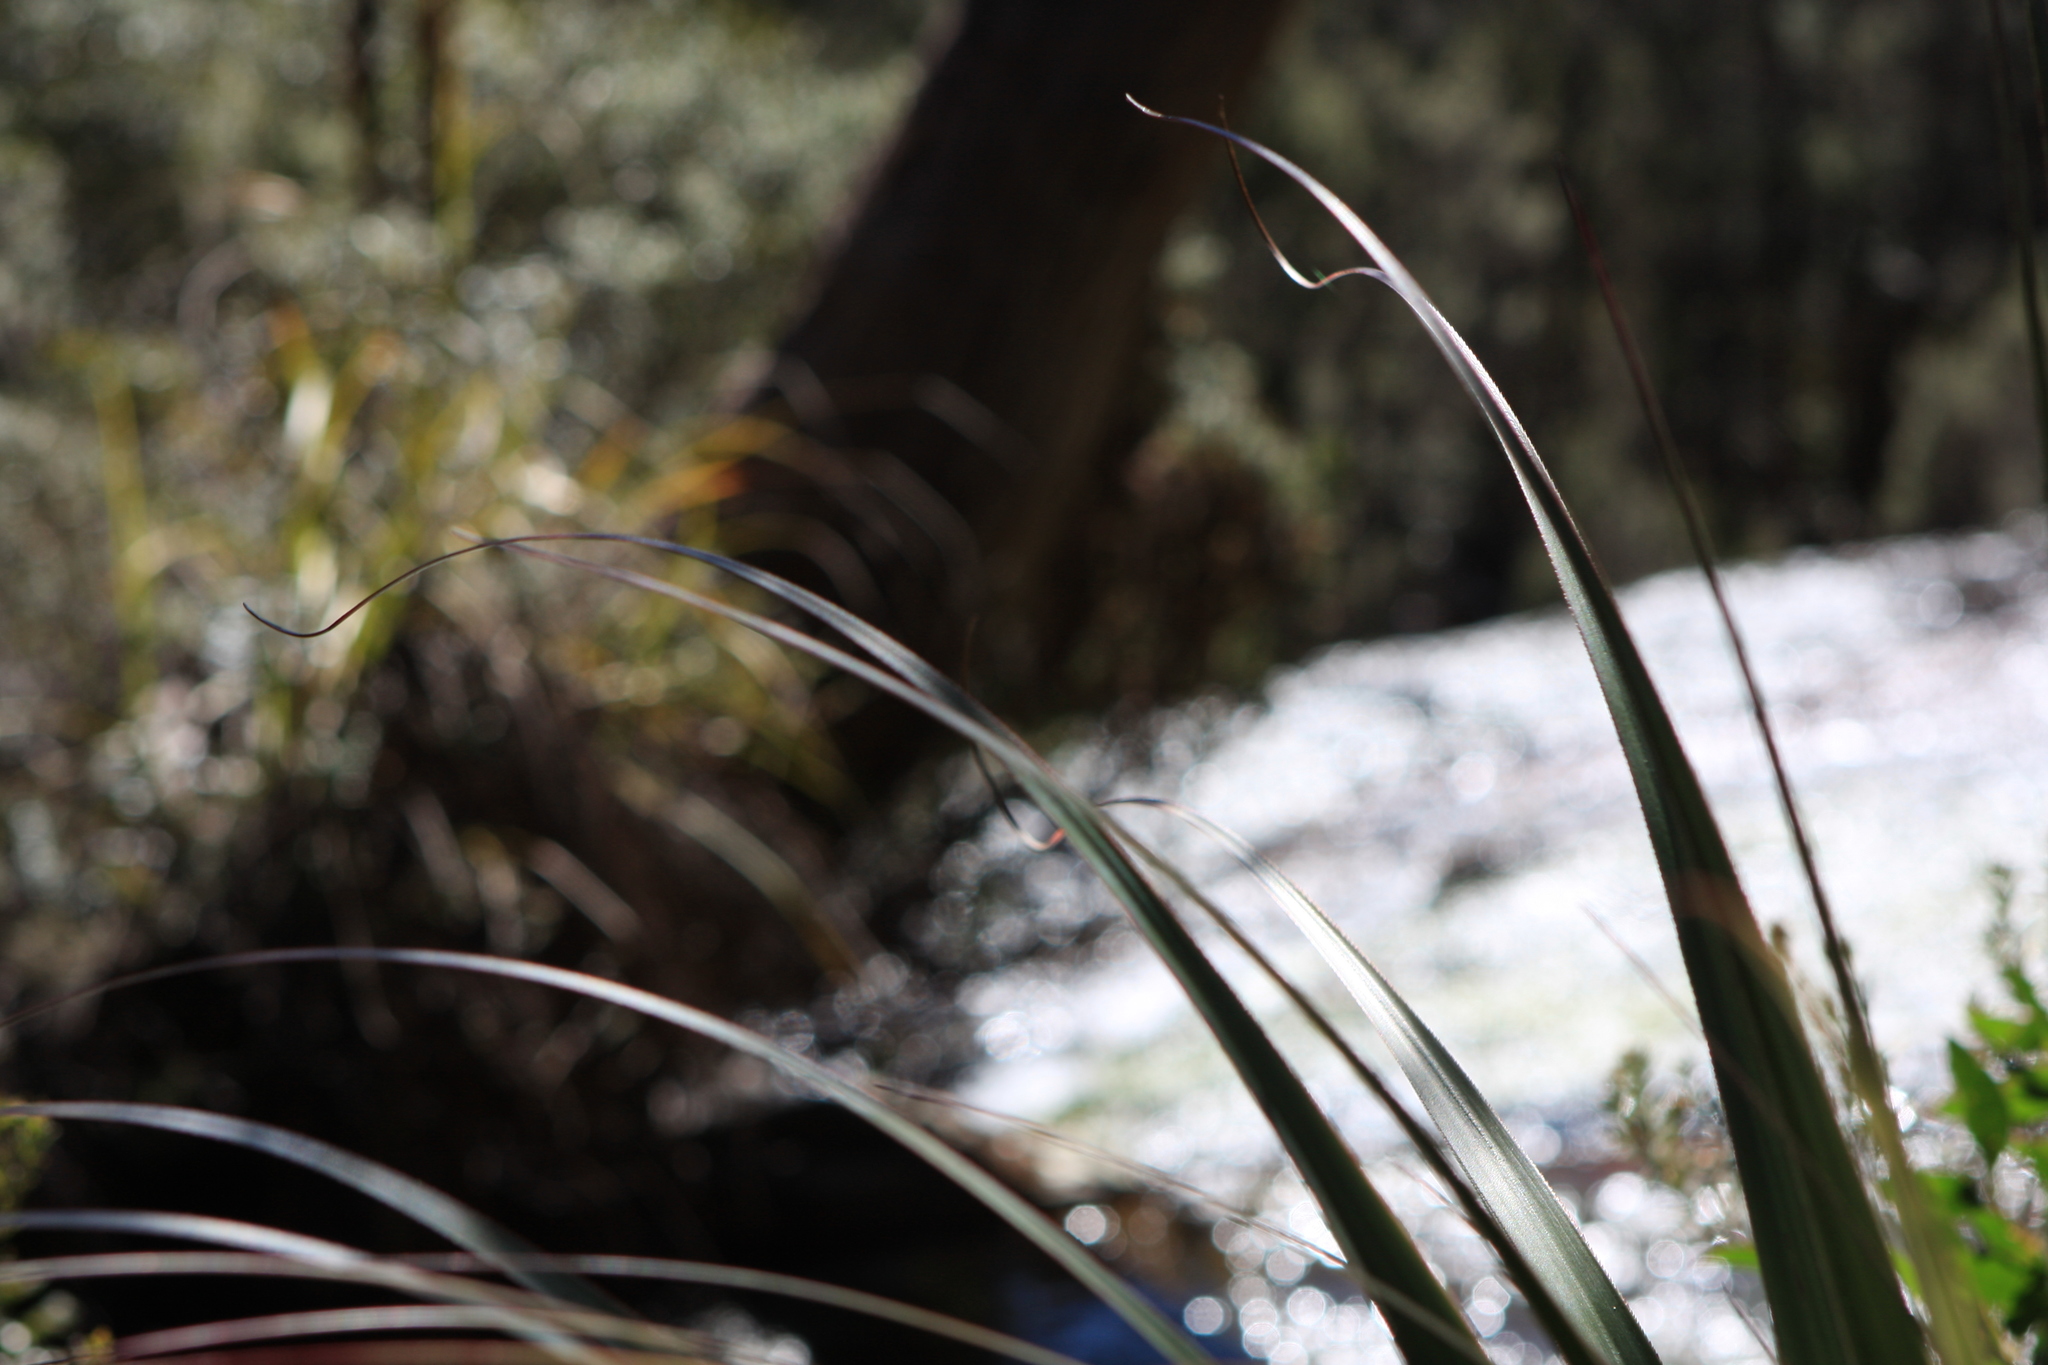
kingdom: Plantae
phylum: Tracheophyta
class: Magnoliopsida
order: Ericales
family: Ericaceae
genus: Dracophyllum
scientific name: Dracophyllum pandanifolium
